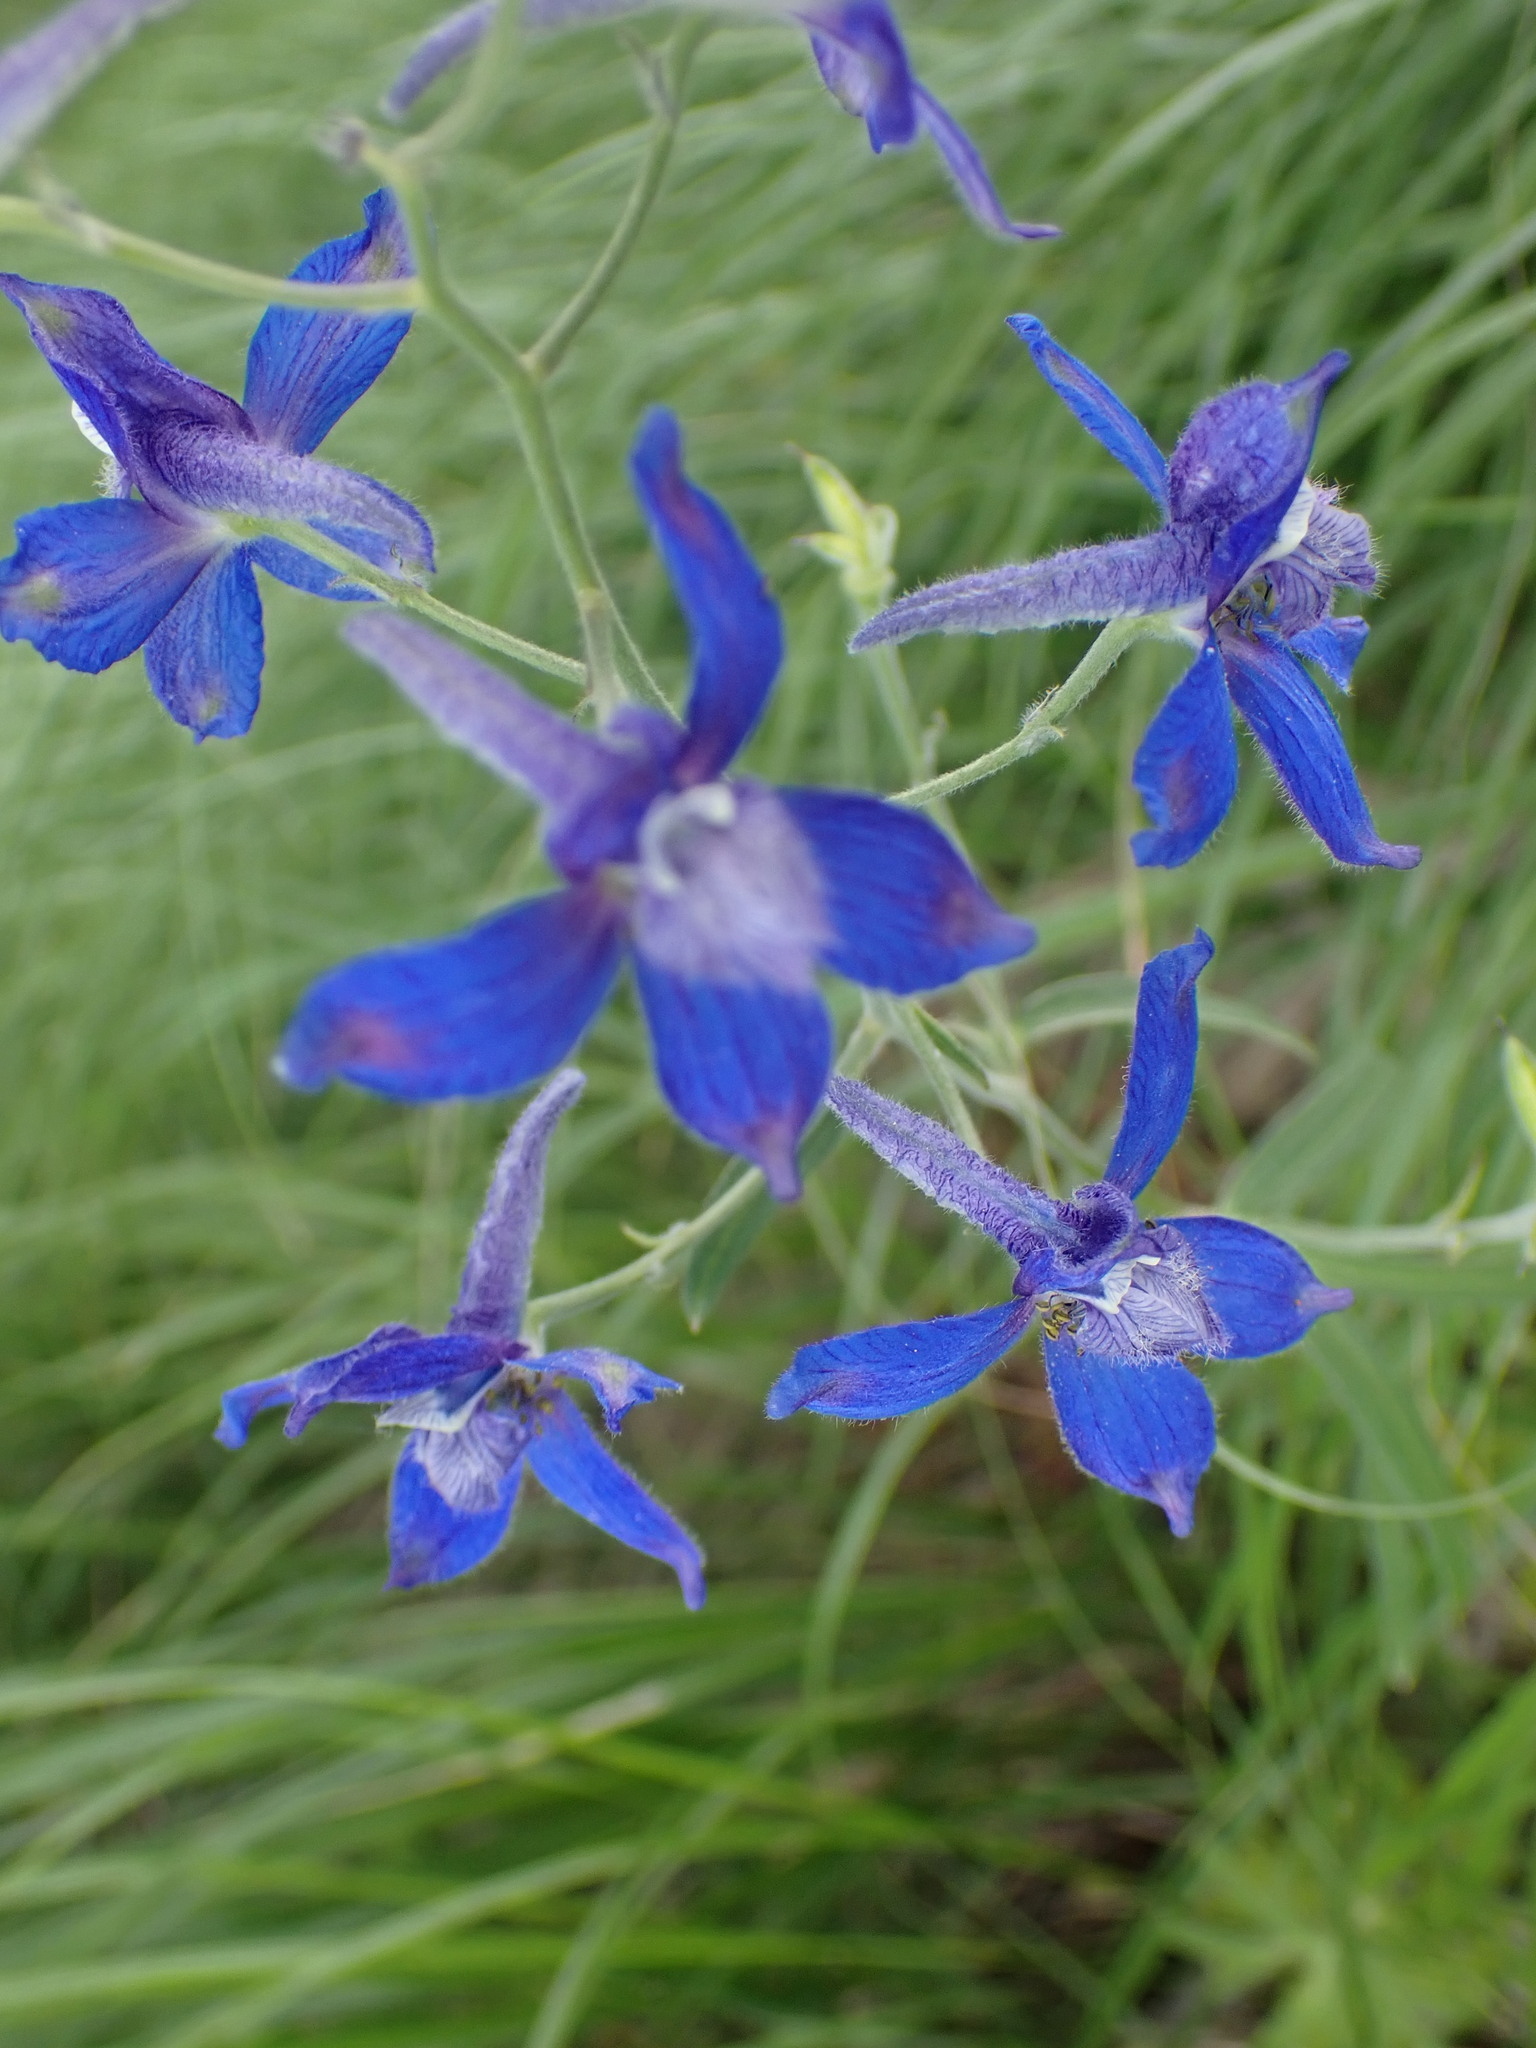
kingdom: Plantae
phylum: Tracheophyta
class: Magnoliopsida
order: Ranunculales
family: Ranunculaceae
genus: Delphinium
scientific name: Delphinium nuttallianum
